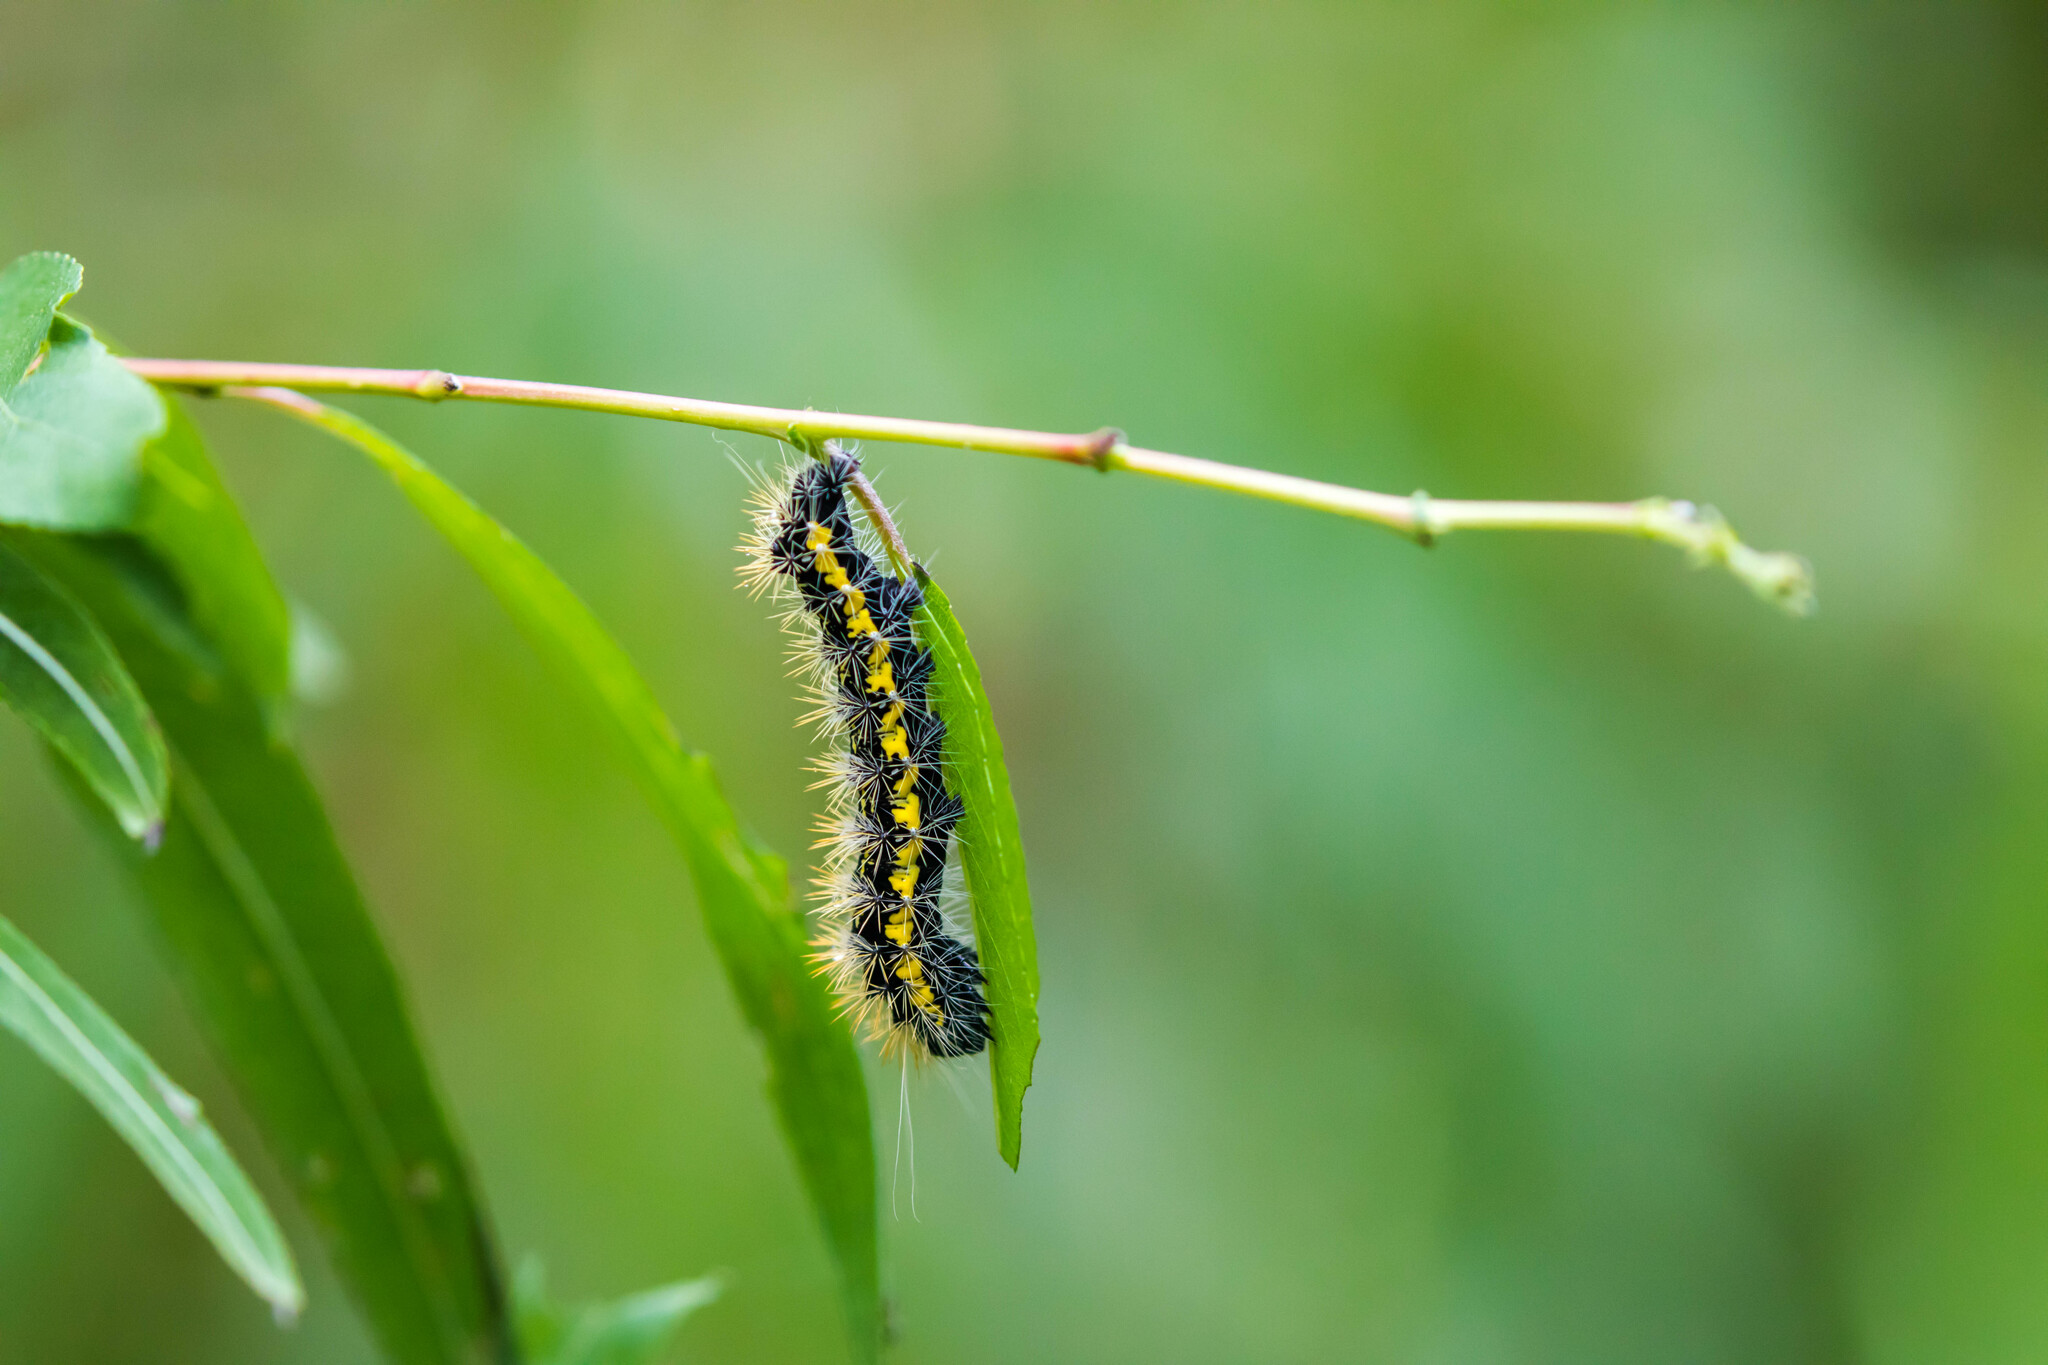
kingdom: Animalia
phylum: Arthropoda
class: Insecta
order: Lepidoptera
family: Noctuidae
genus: Acronicta
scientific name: Acronicta oblinita
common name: Smeared dagger
